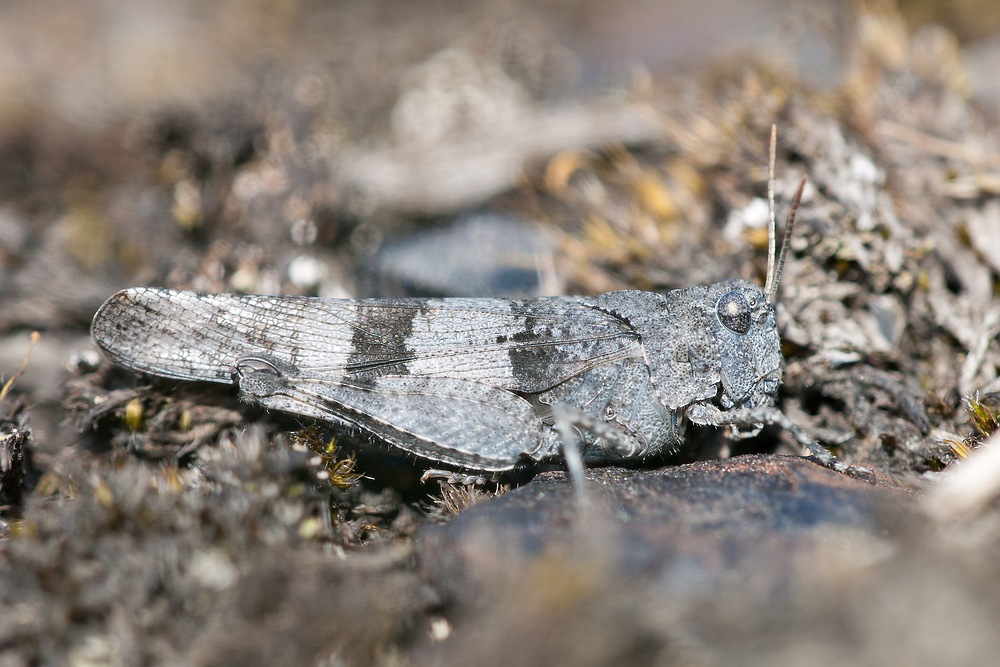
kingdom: Animalia
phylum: Arthropoda
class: Insecta
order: Orthoptera
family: Acrididae
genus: Oedipoda
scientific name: Oedipoda caerulescens
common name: Blue-winged grasshopper
